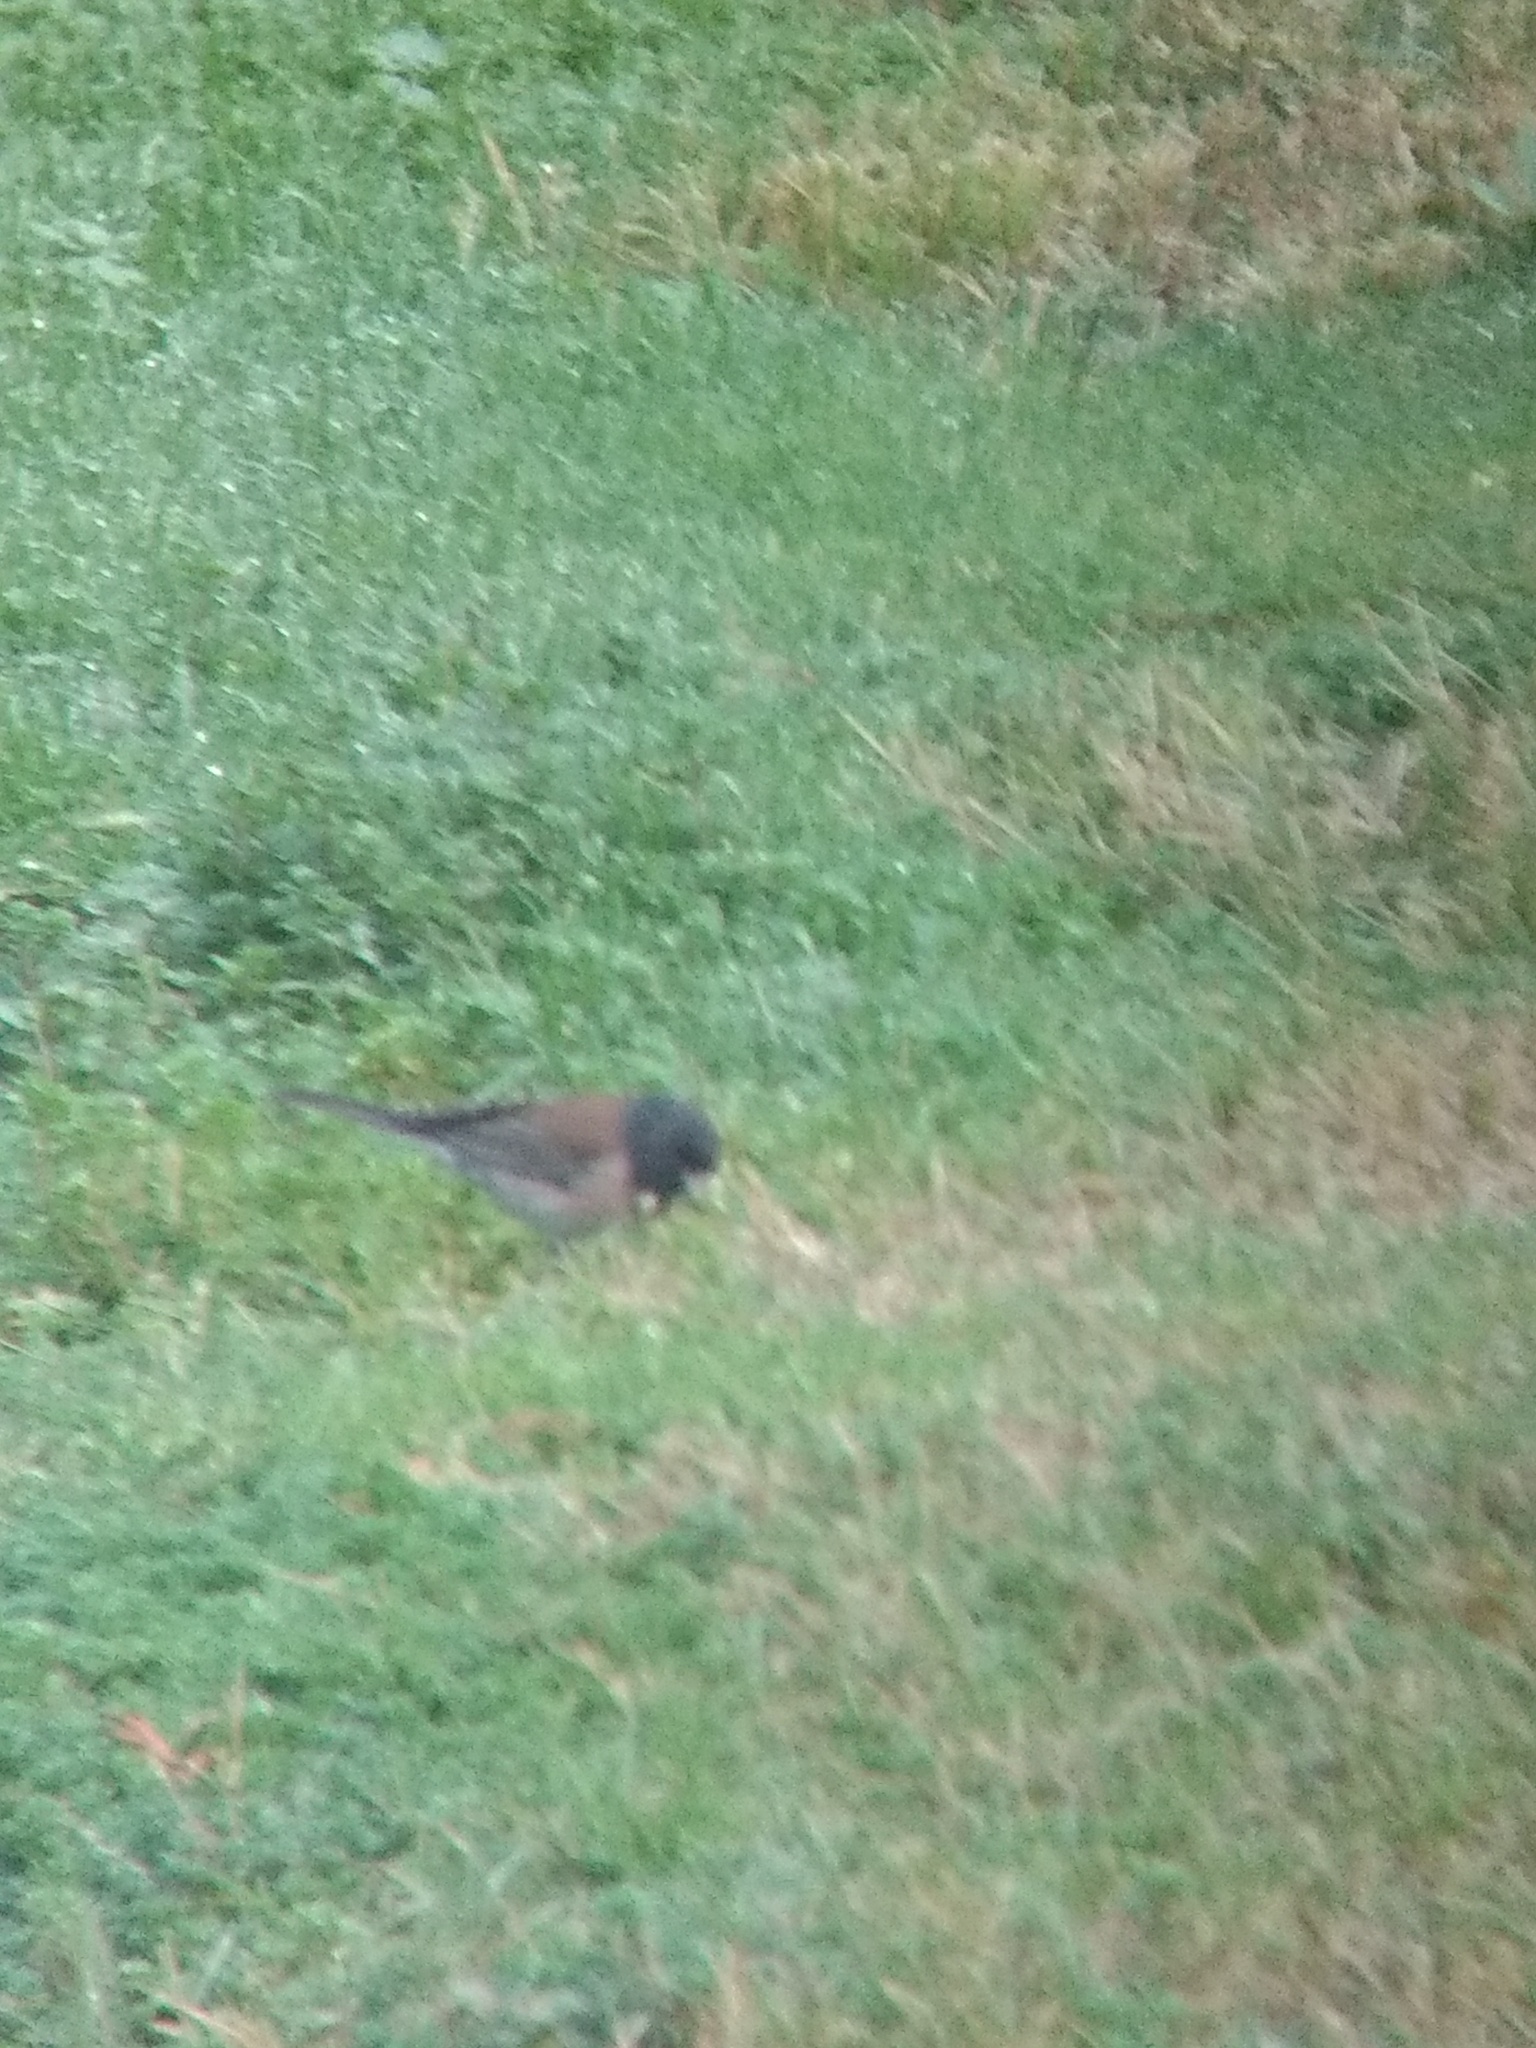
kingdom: Animalia
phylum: Chordata
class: Aves
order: Passeriformes
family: Passerellidae
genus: Junco
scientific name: Junco hyemalis
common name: Dark-eyed junco
